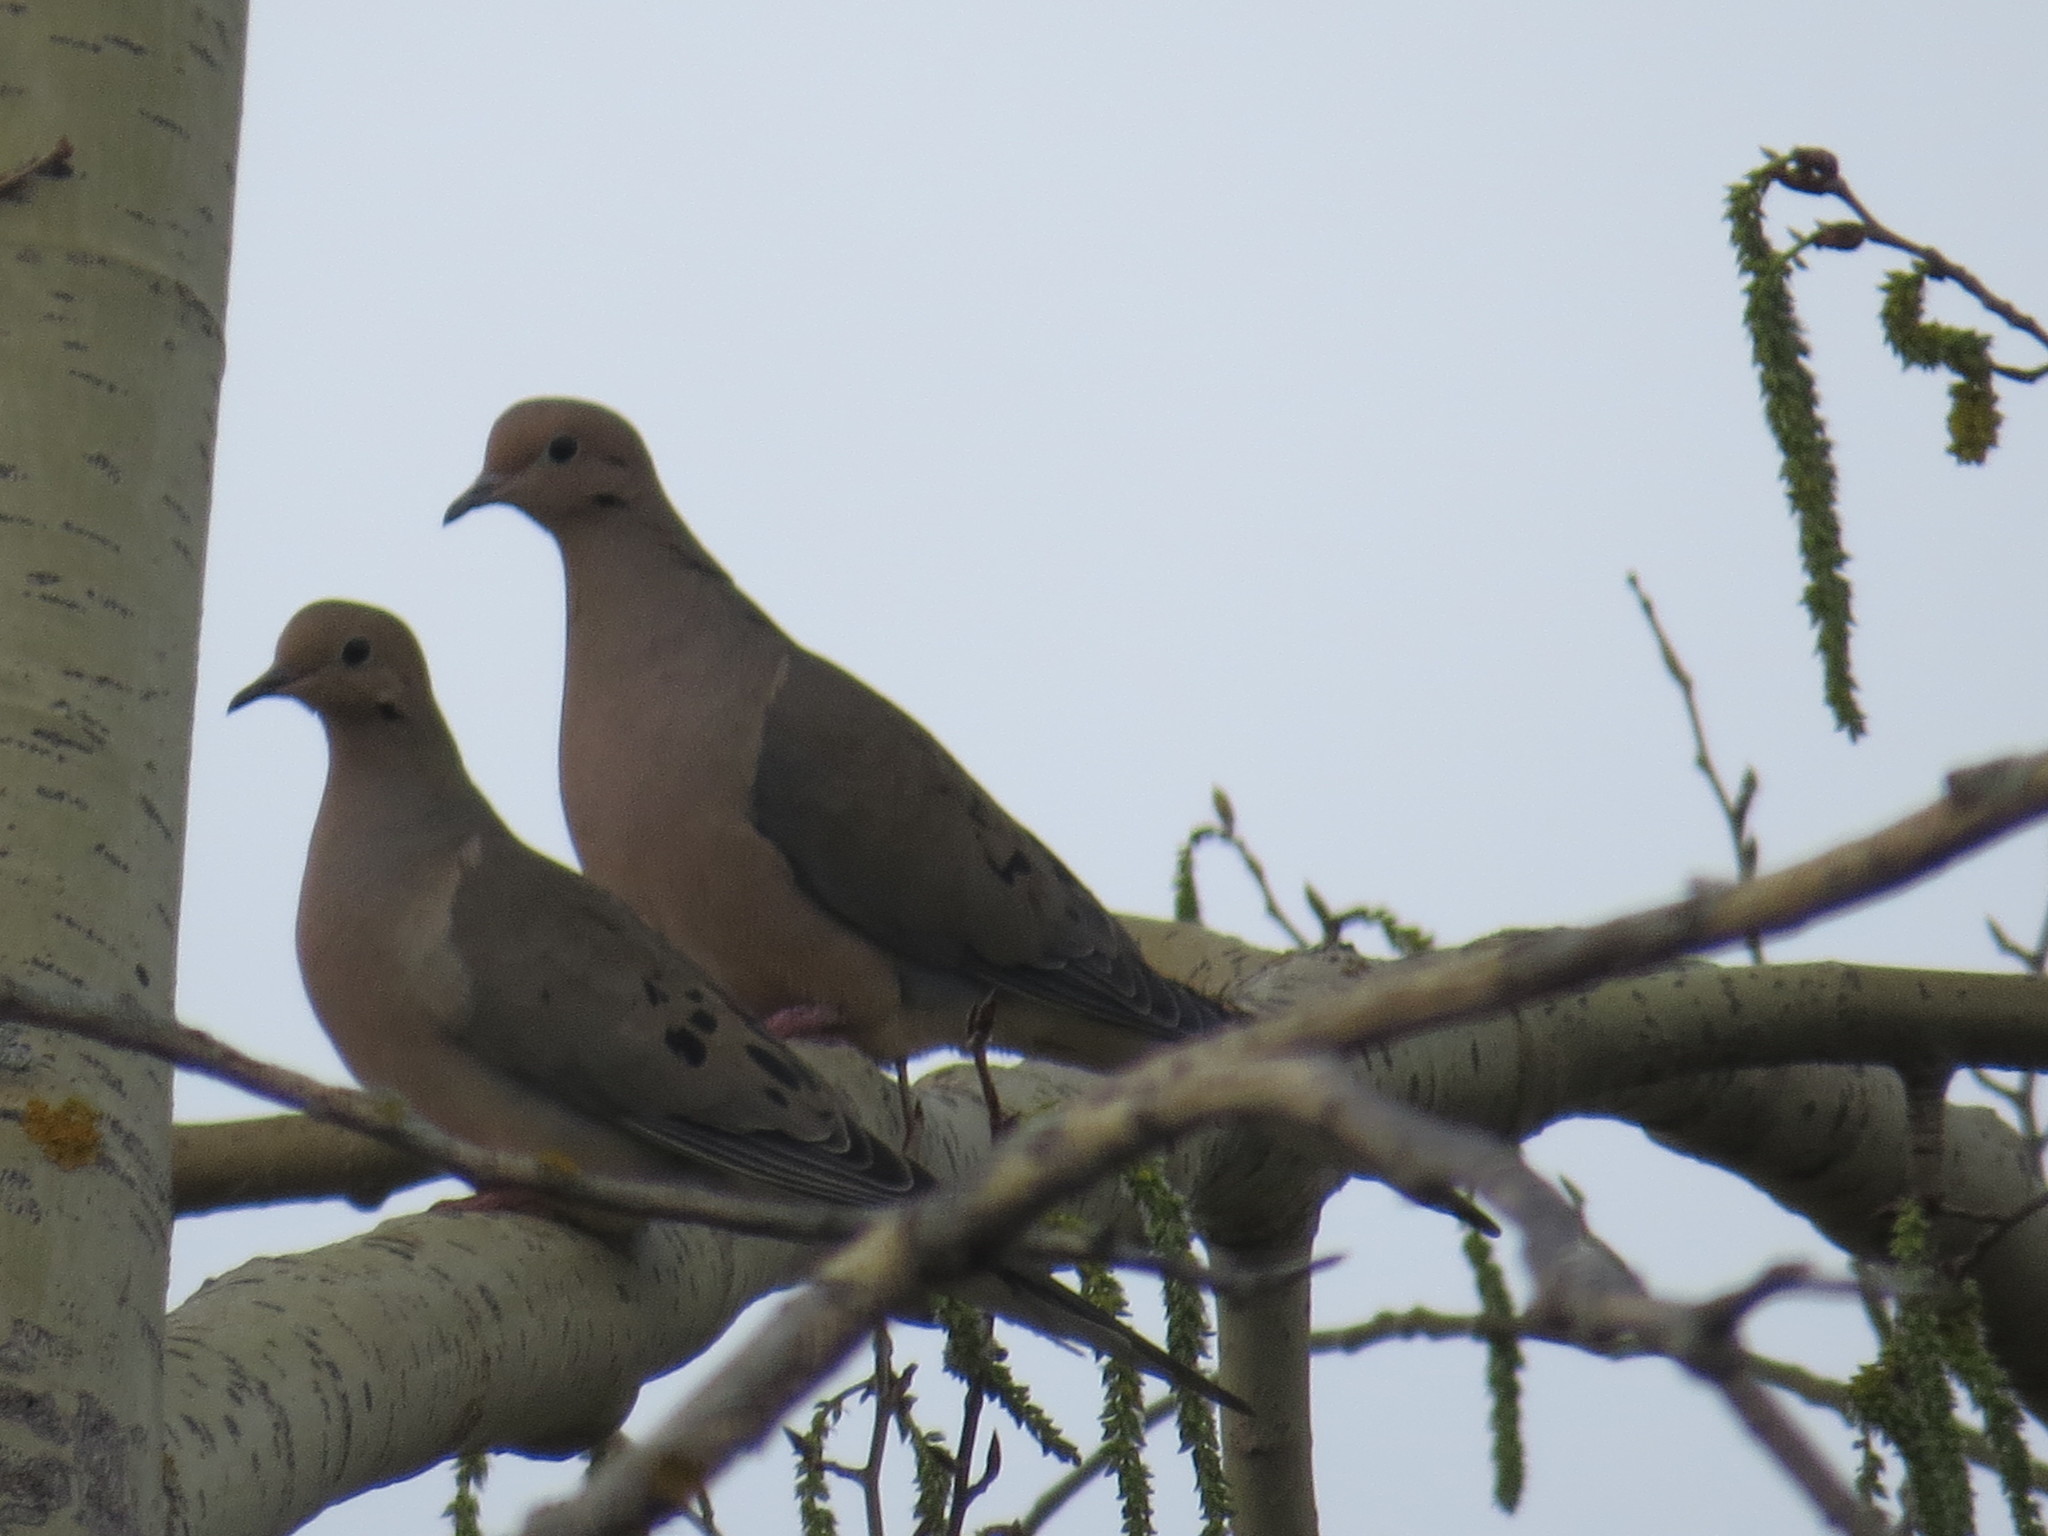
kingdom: Animalia
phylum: Chordata
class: Aves
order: Columbiformes
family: Columbidae
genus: Zenaida
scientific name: Zenaida macroura
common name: Mourning dove
